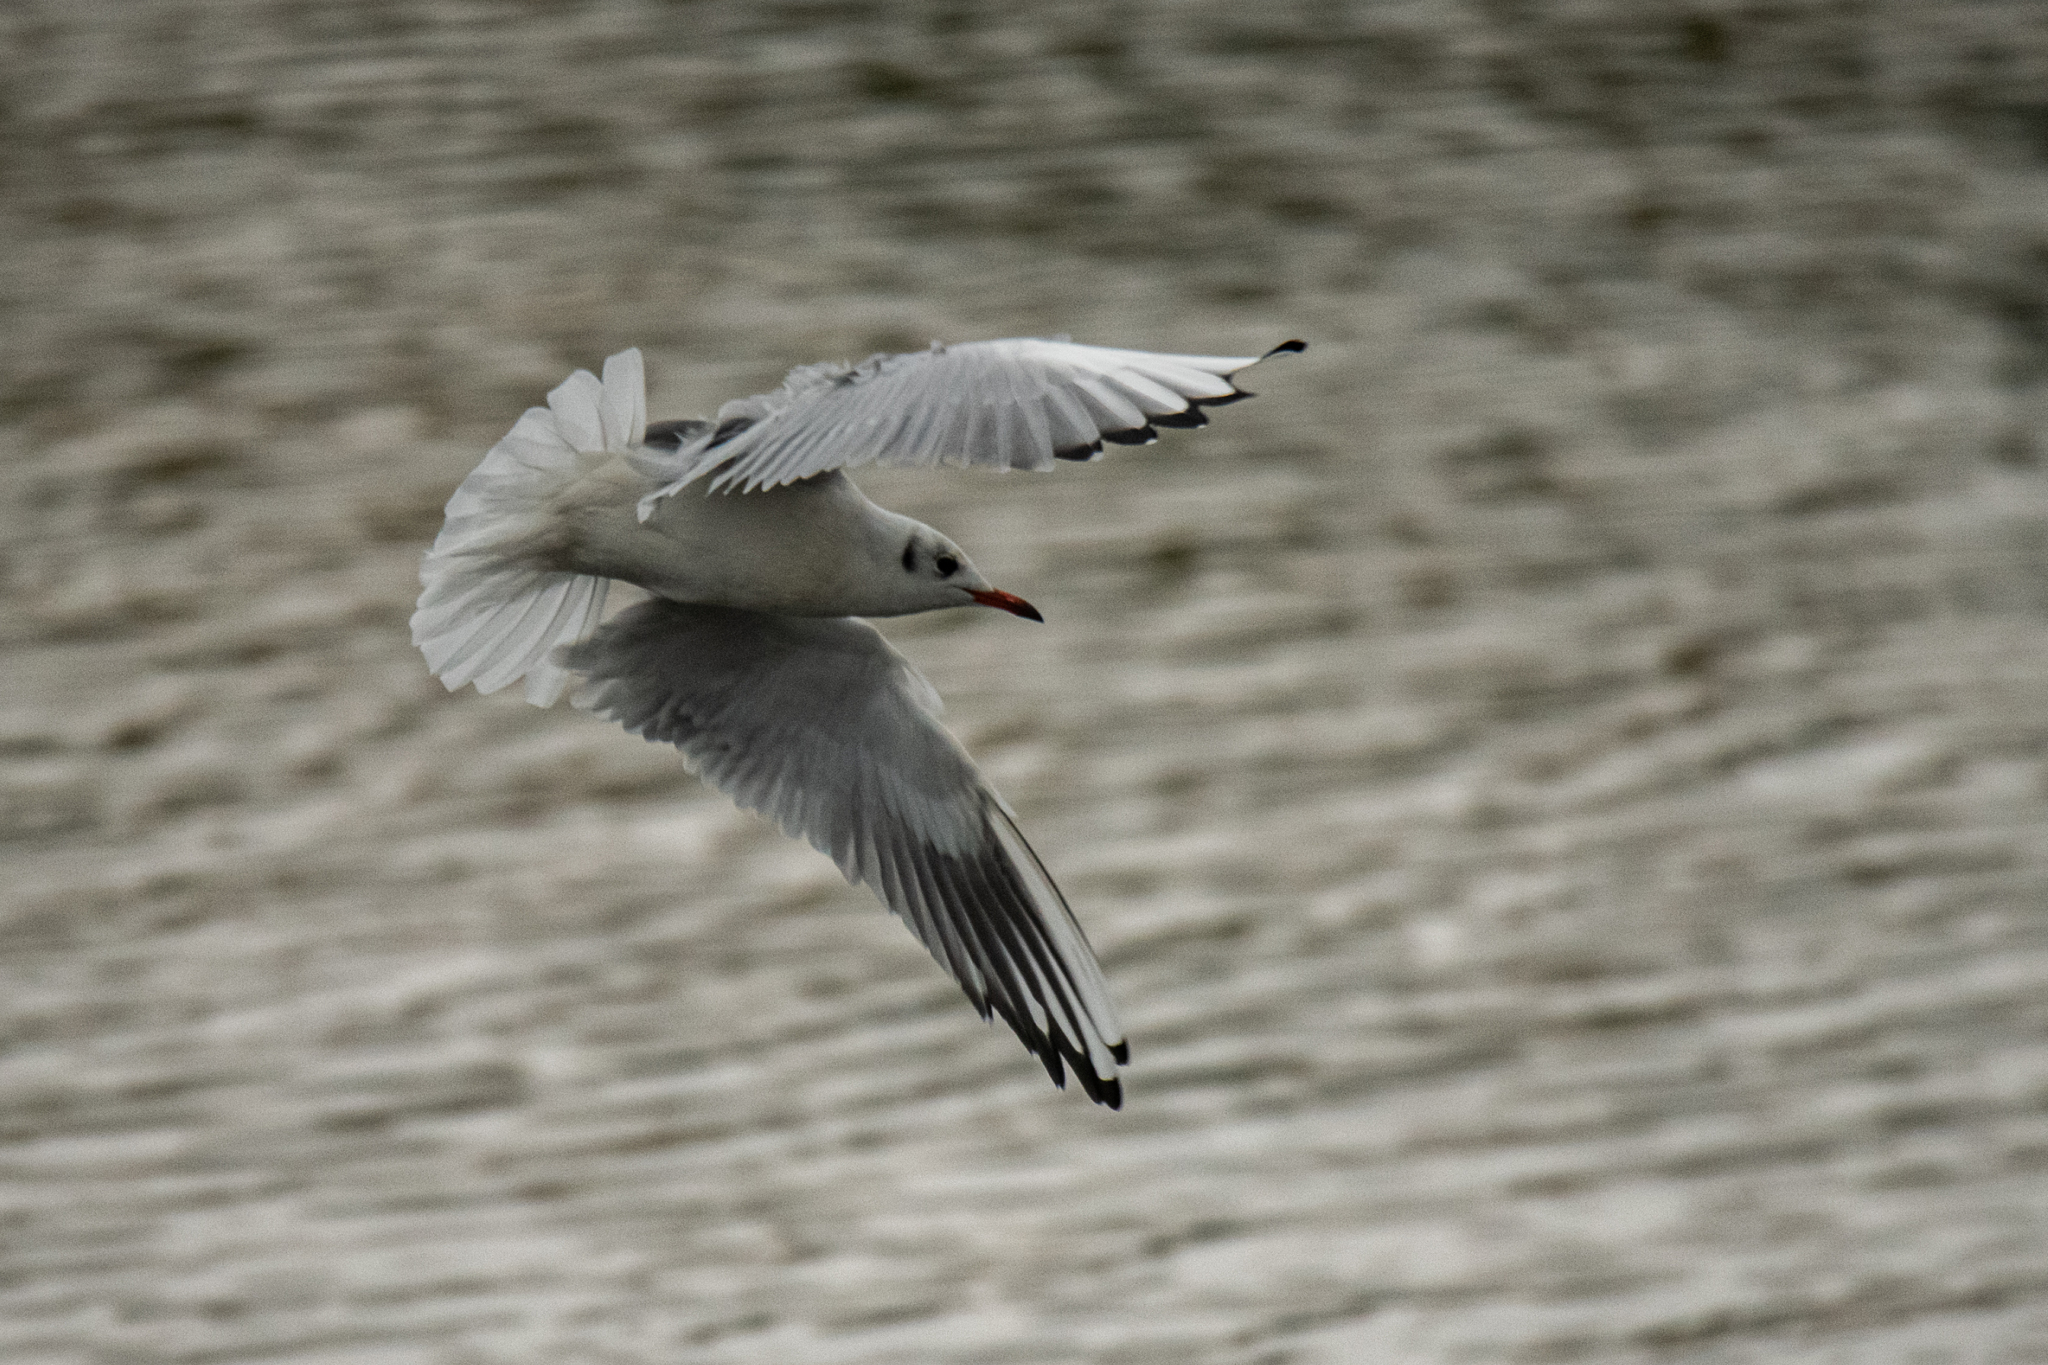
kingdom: Animalia
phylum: Chordata
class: Aves
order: Charadriiformes
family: Laridae
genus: Chroicocephalus
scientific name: Chroicocephalus ridibundus
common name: Black-headed gull
